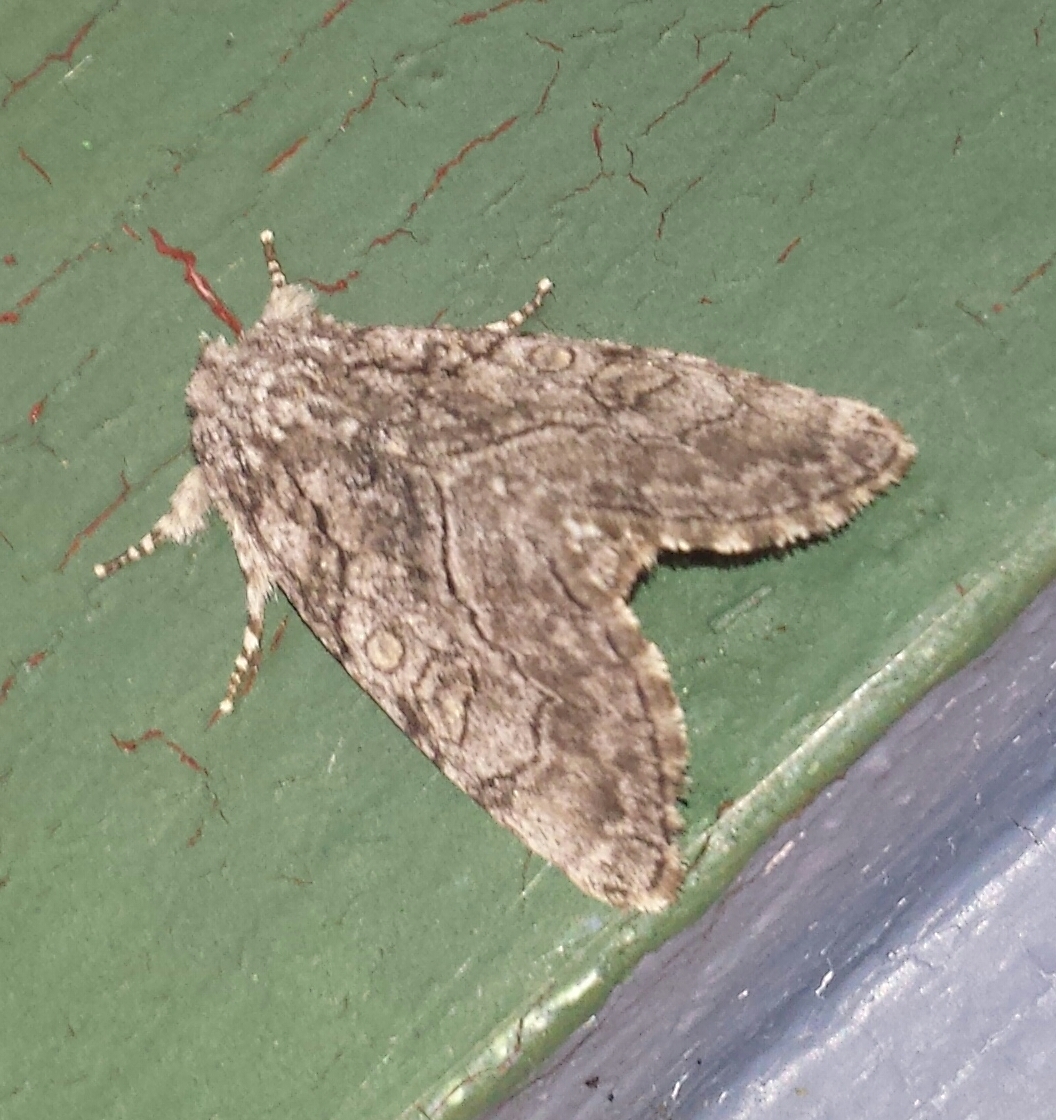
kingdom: Animalia
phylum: Arthropoda
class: Insecta
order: Lepidoptera
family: Noctuidae
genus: Raphia
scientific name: Raphia frater
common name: Brother
